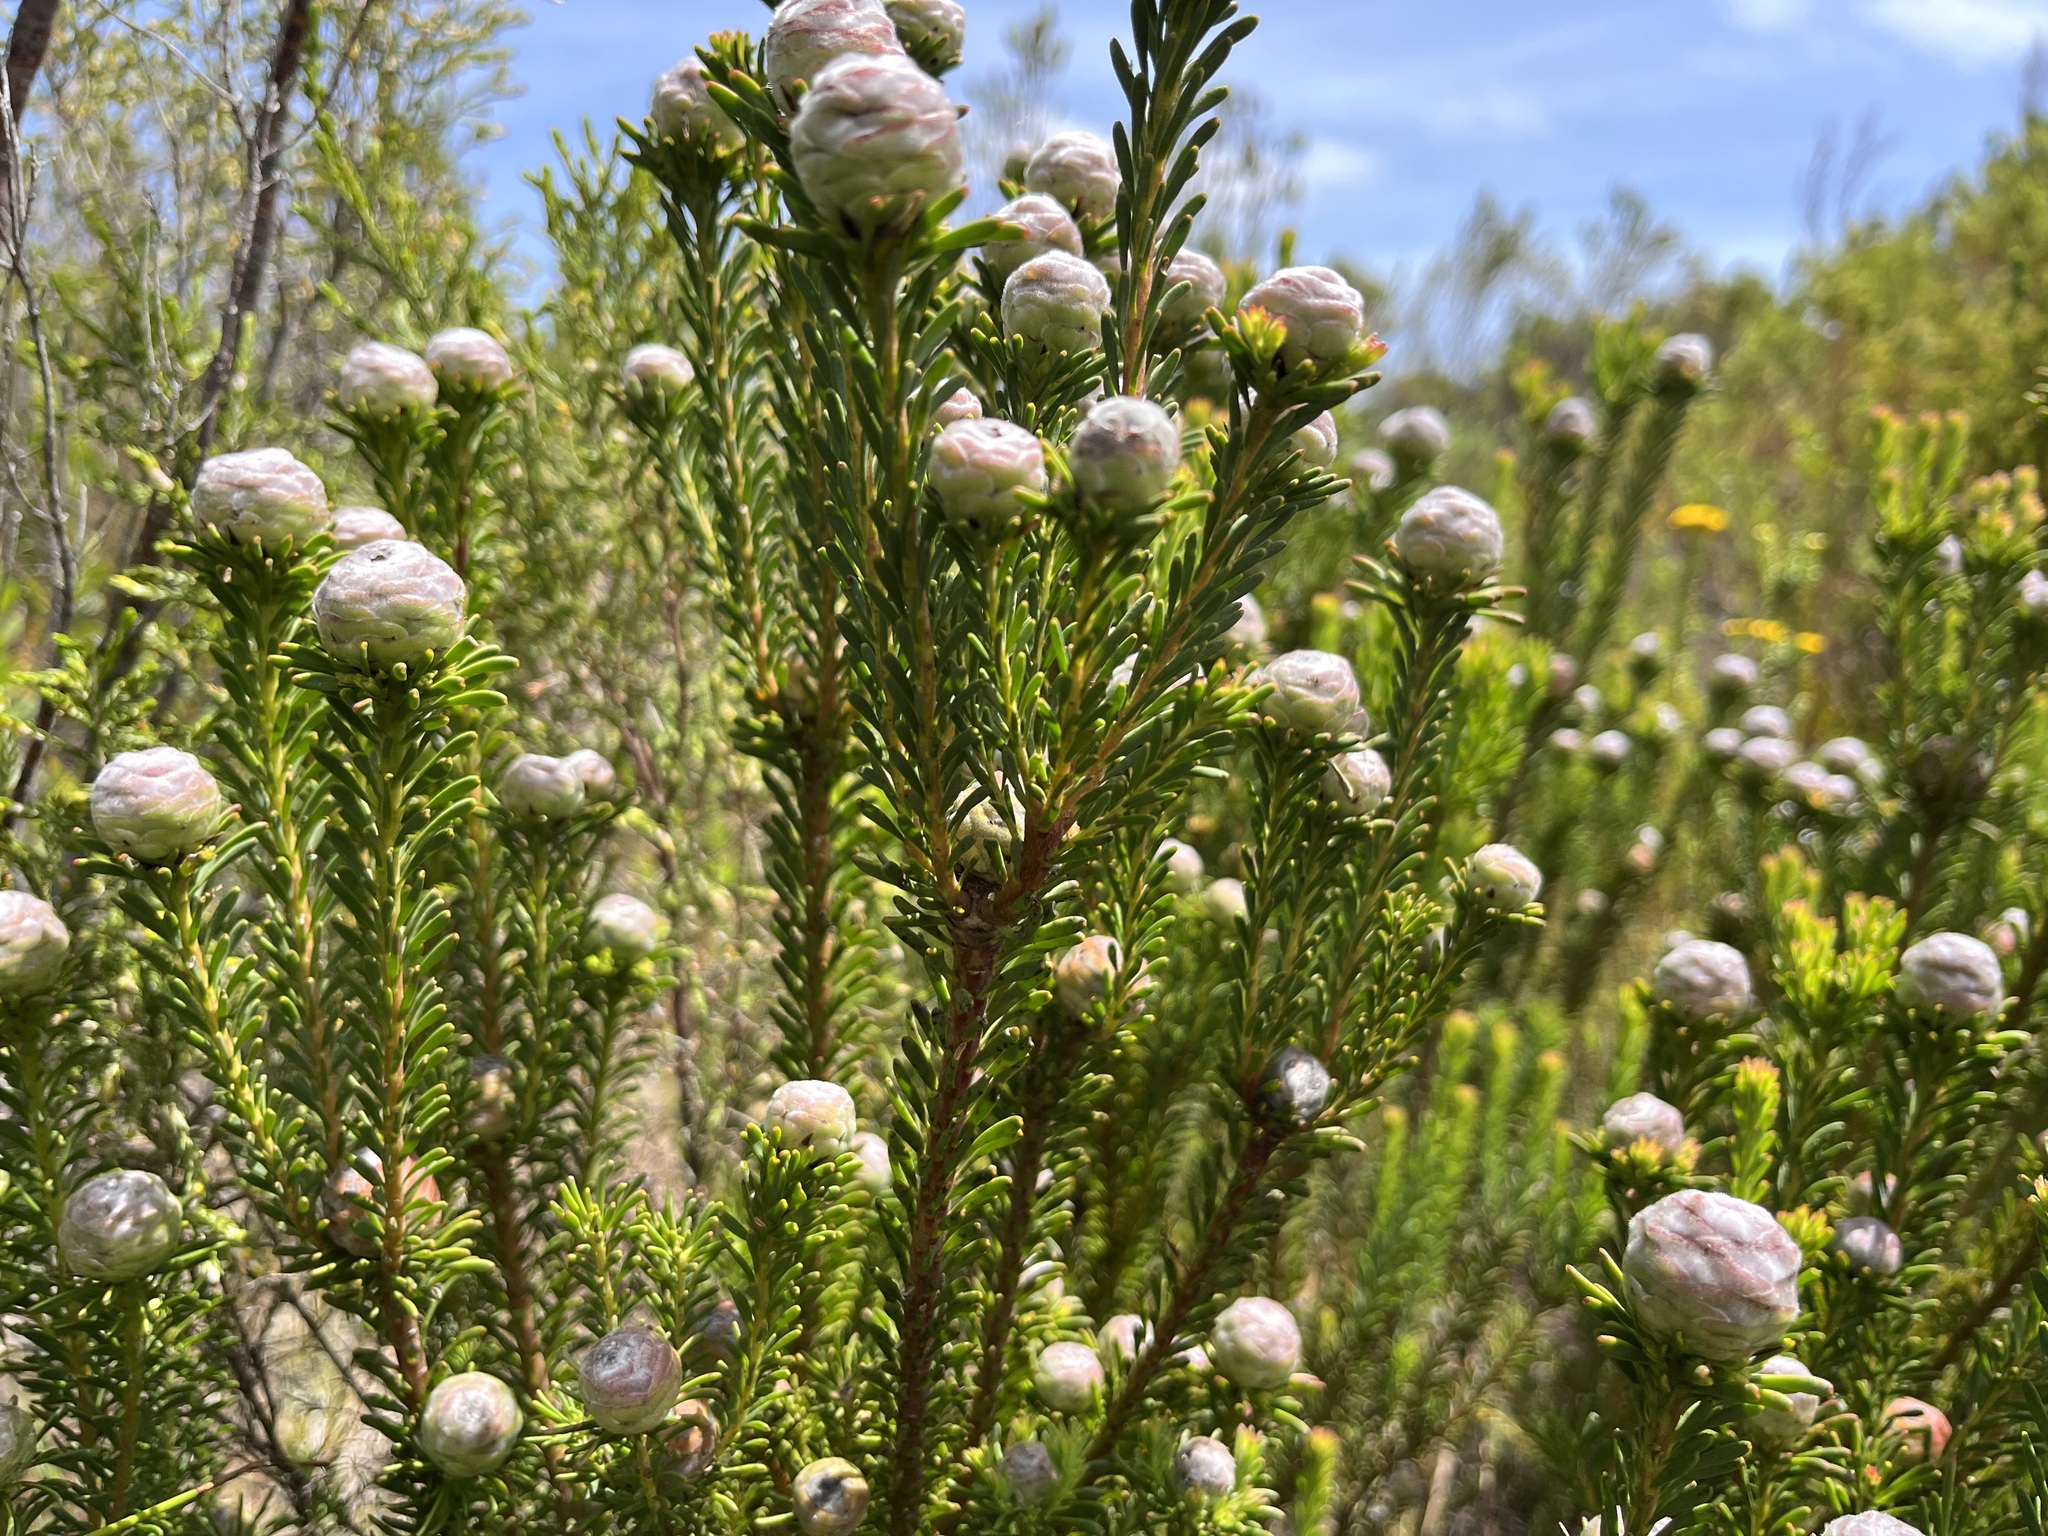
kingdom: Plantae
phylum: Tracheophyta
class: Magnoliopsida
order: Proteales
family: Proteaceae
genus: Leucadendron
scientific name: Leucadendron linifolium
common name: Line-leaf conebush
